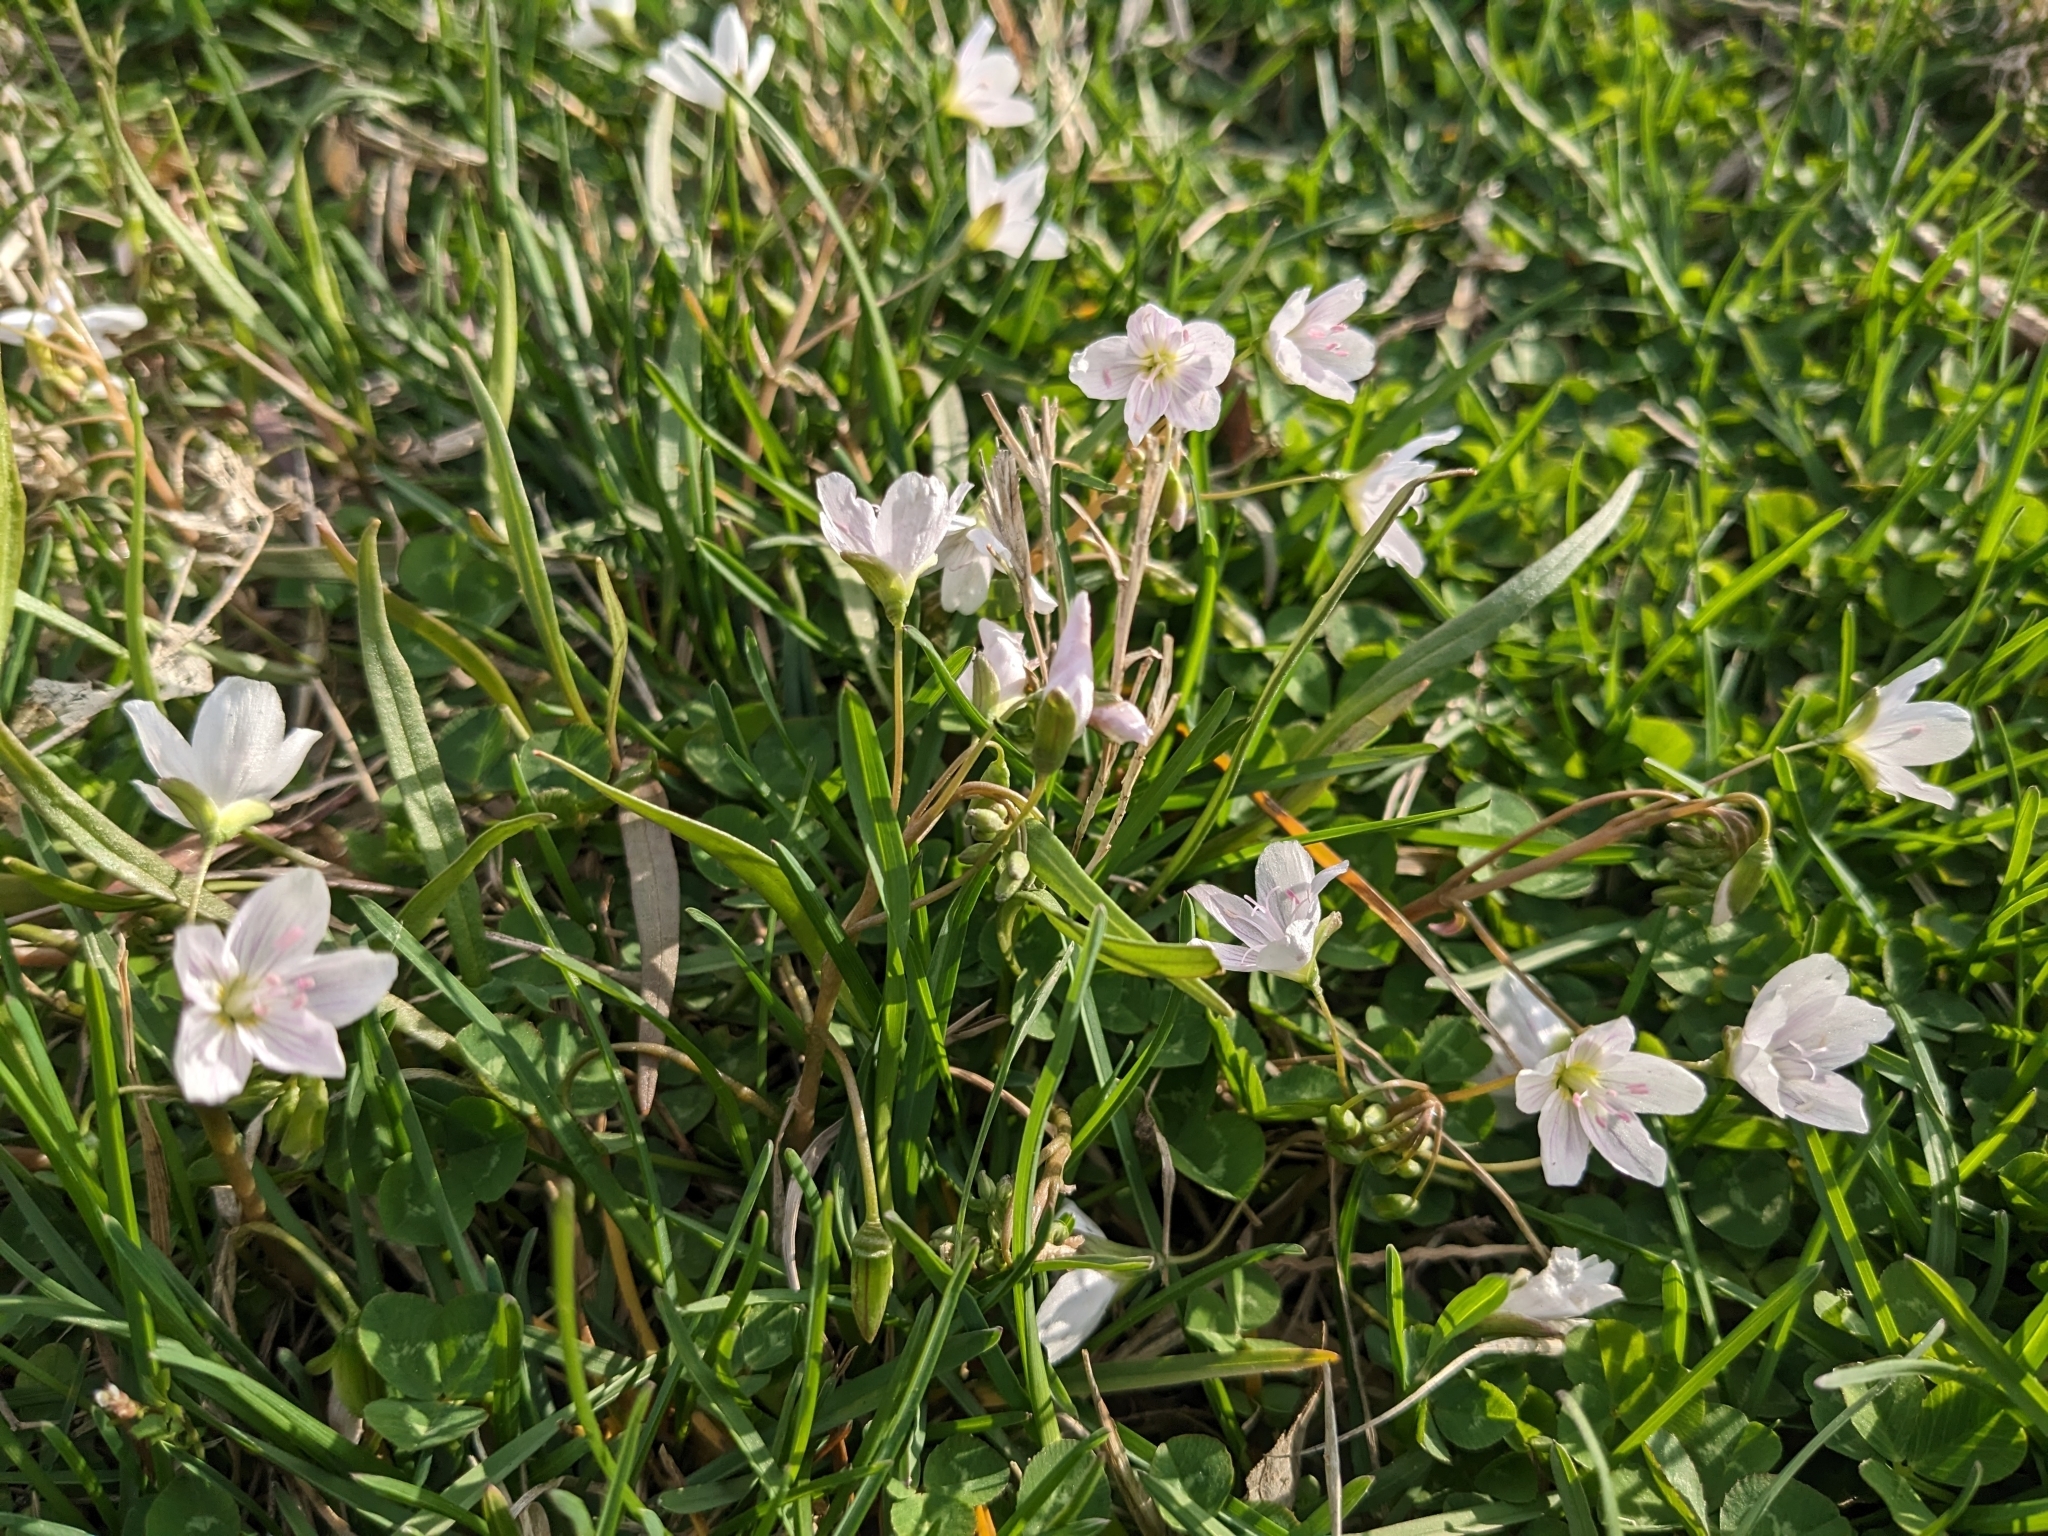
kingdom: Plantae
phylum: Tracheophyta
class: Magnoliopsida
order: Caryophyllales
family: Montiaceae
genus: Claytonia
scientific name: Claytonia virginica
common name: Virginia springbeauty
